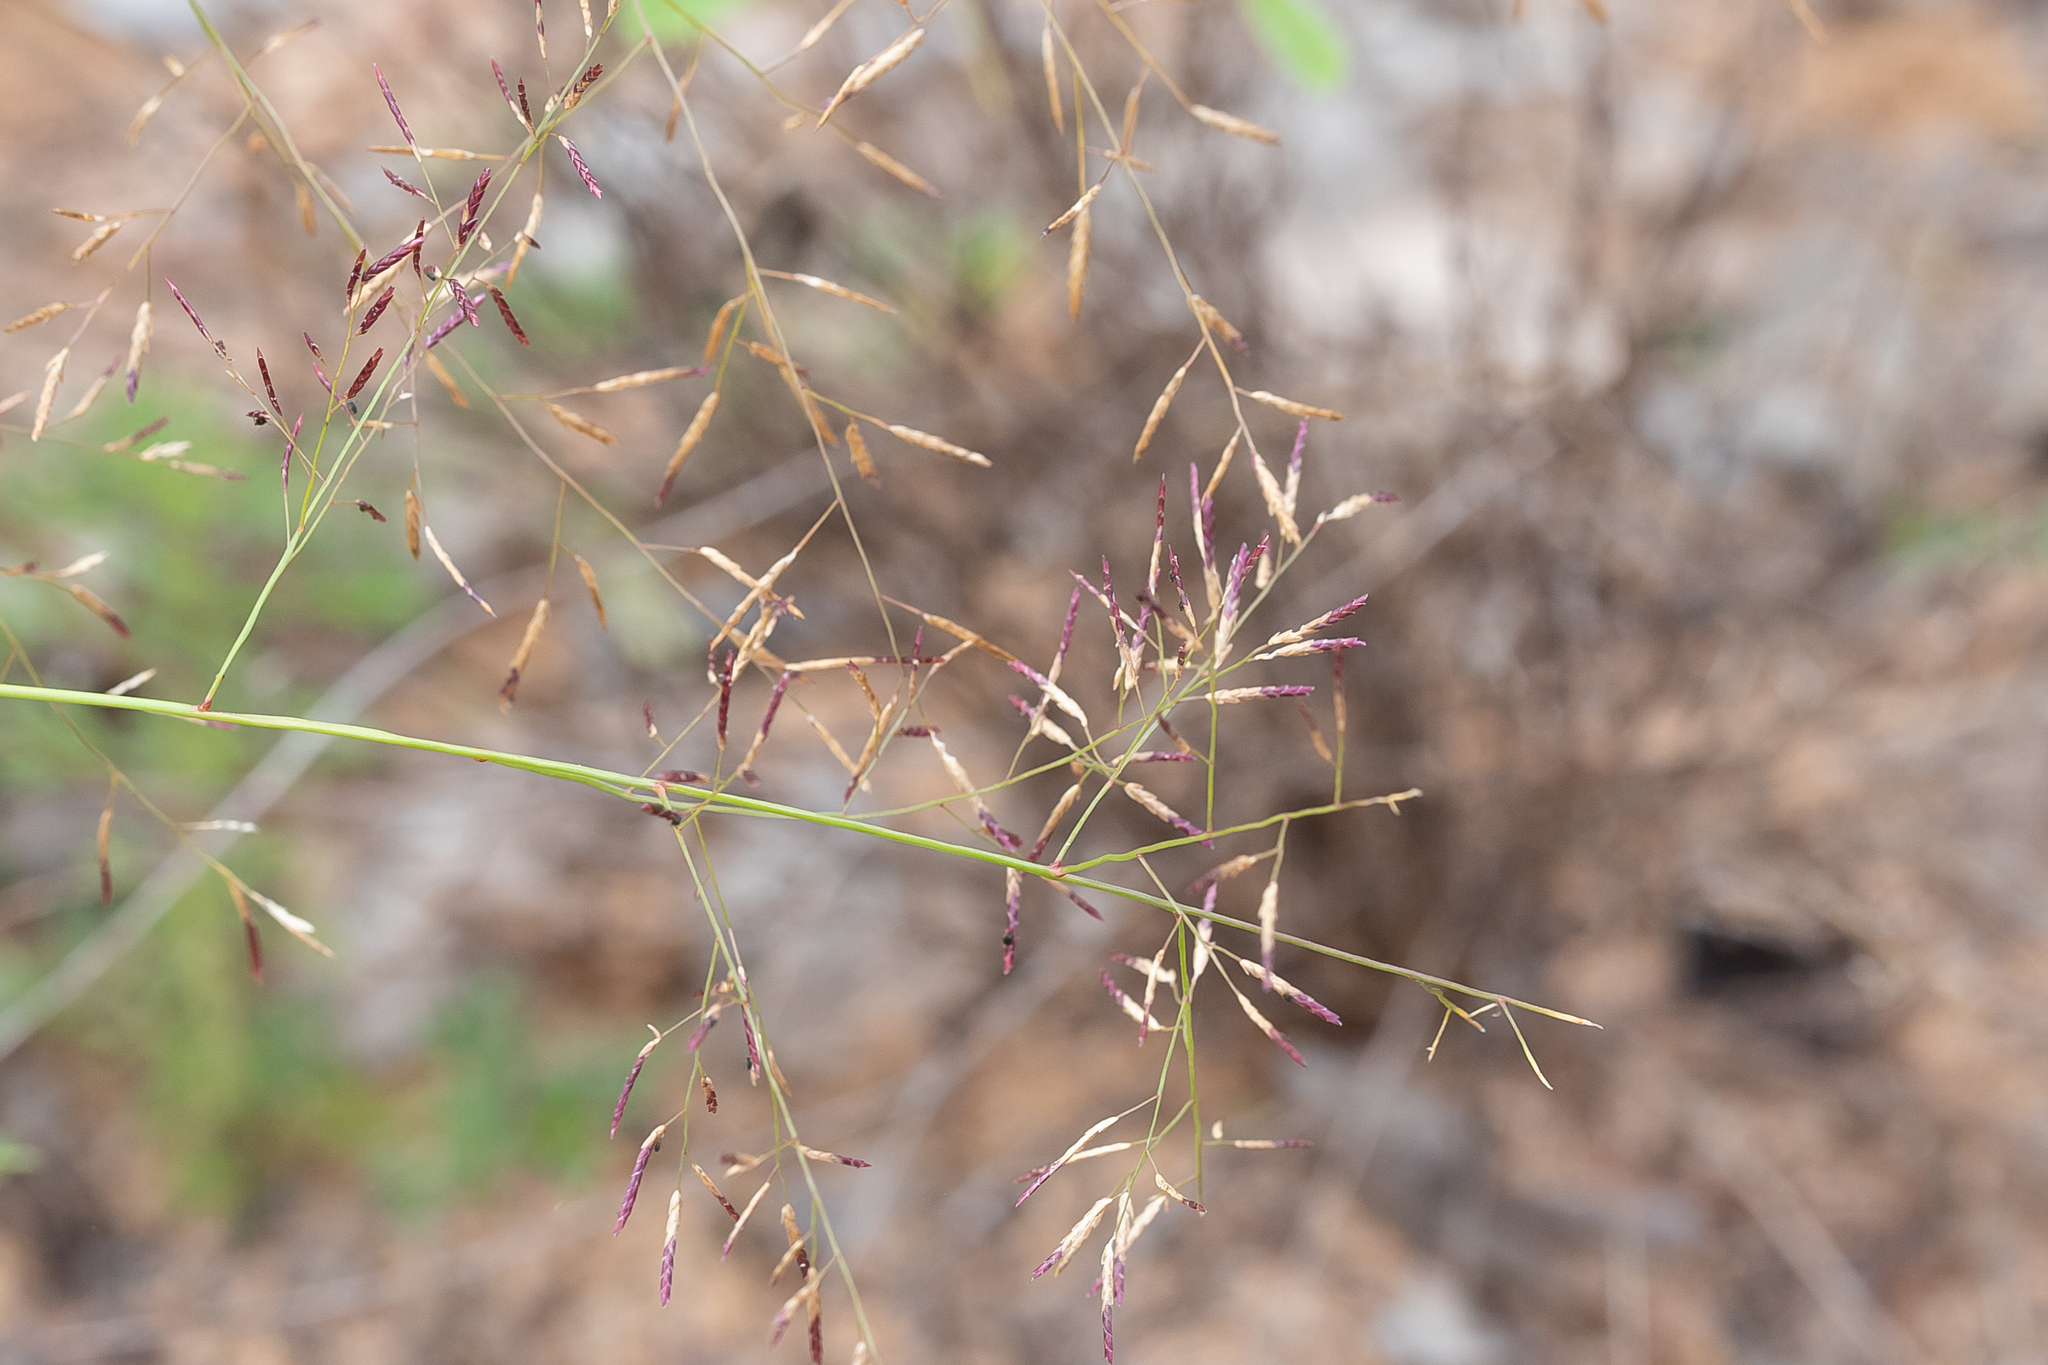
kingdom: Plantae
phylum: Tracheophyta
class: Liliopsida
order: Poales
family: Poaceae
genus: Eragrostis
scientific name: Eragrostis lacunaria
